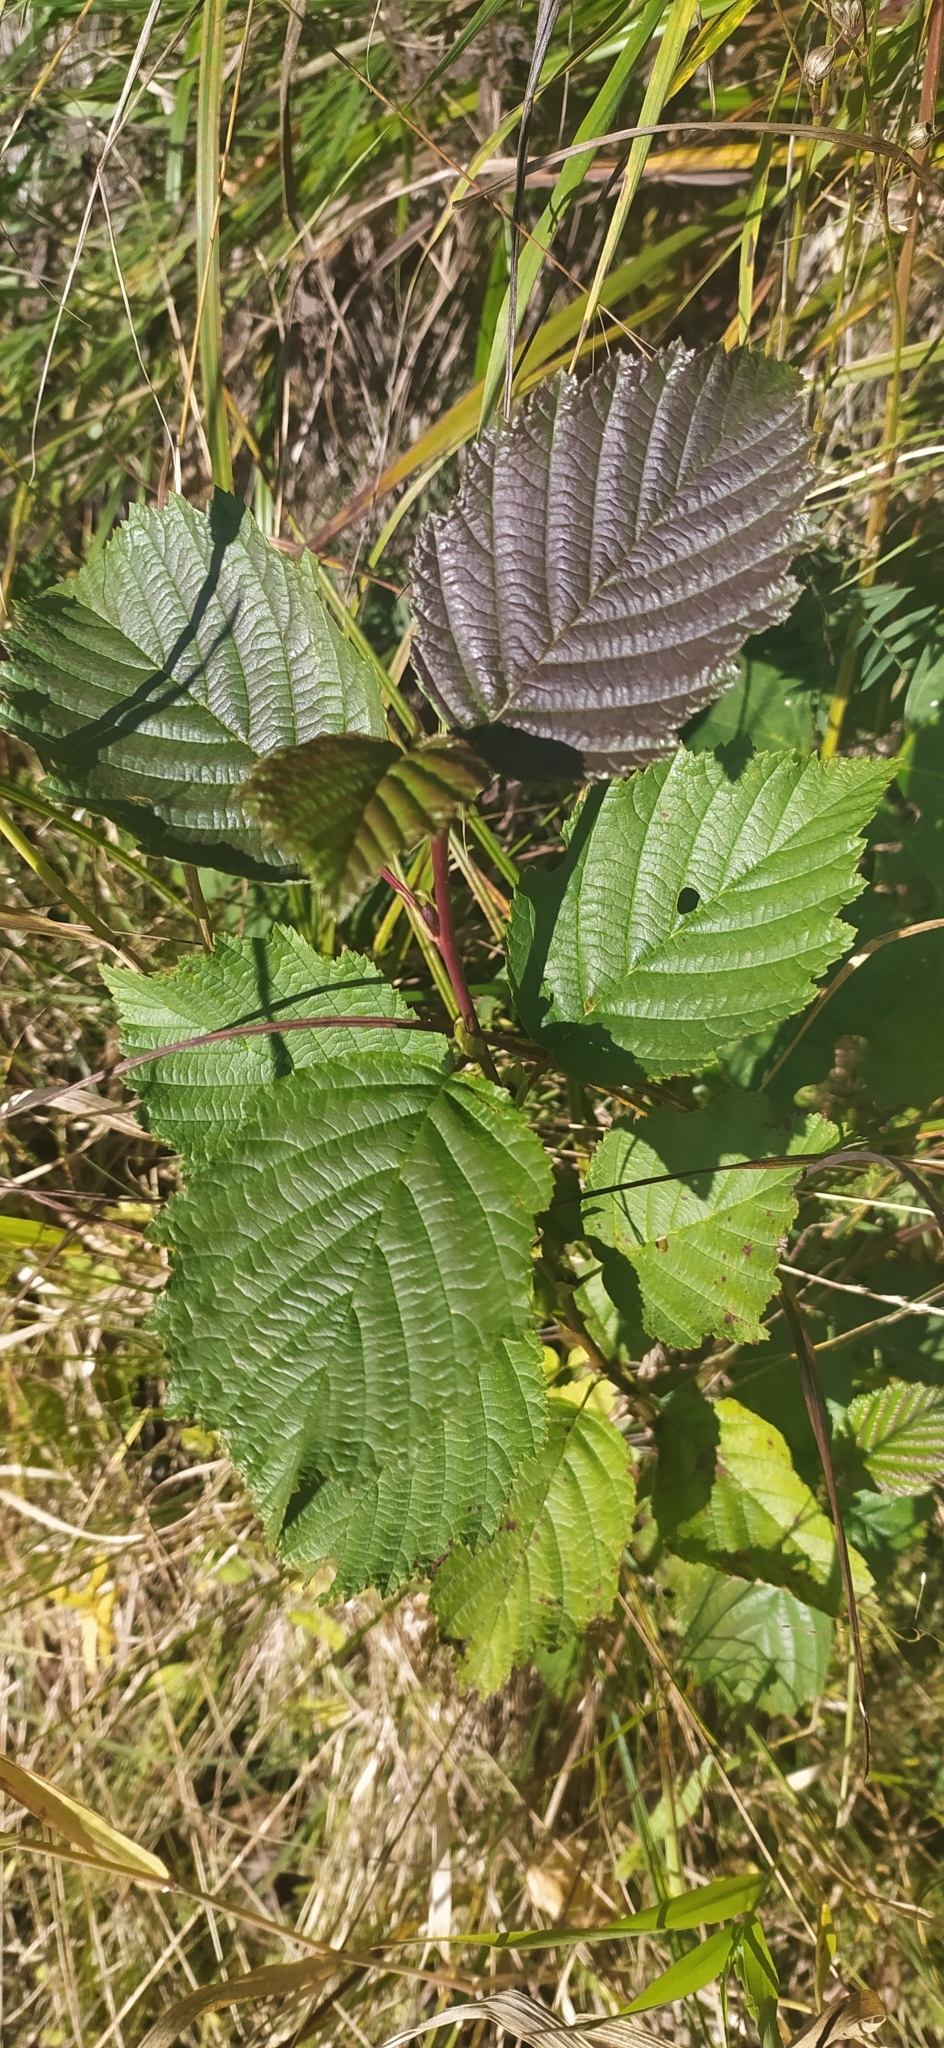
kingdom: Plantae
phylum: Tracheophyta
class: Magnoliopsida
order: Fagales
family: Betulaceae
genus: Alnus
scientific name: Alnus incana
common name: Grey alder
